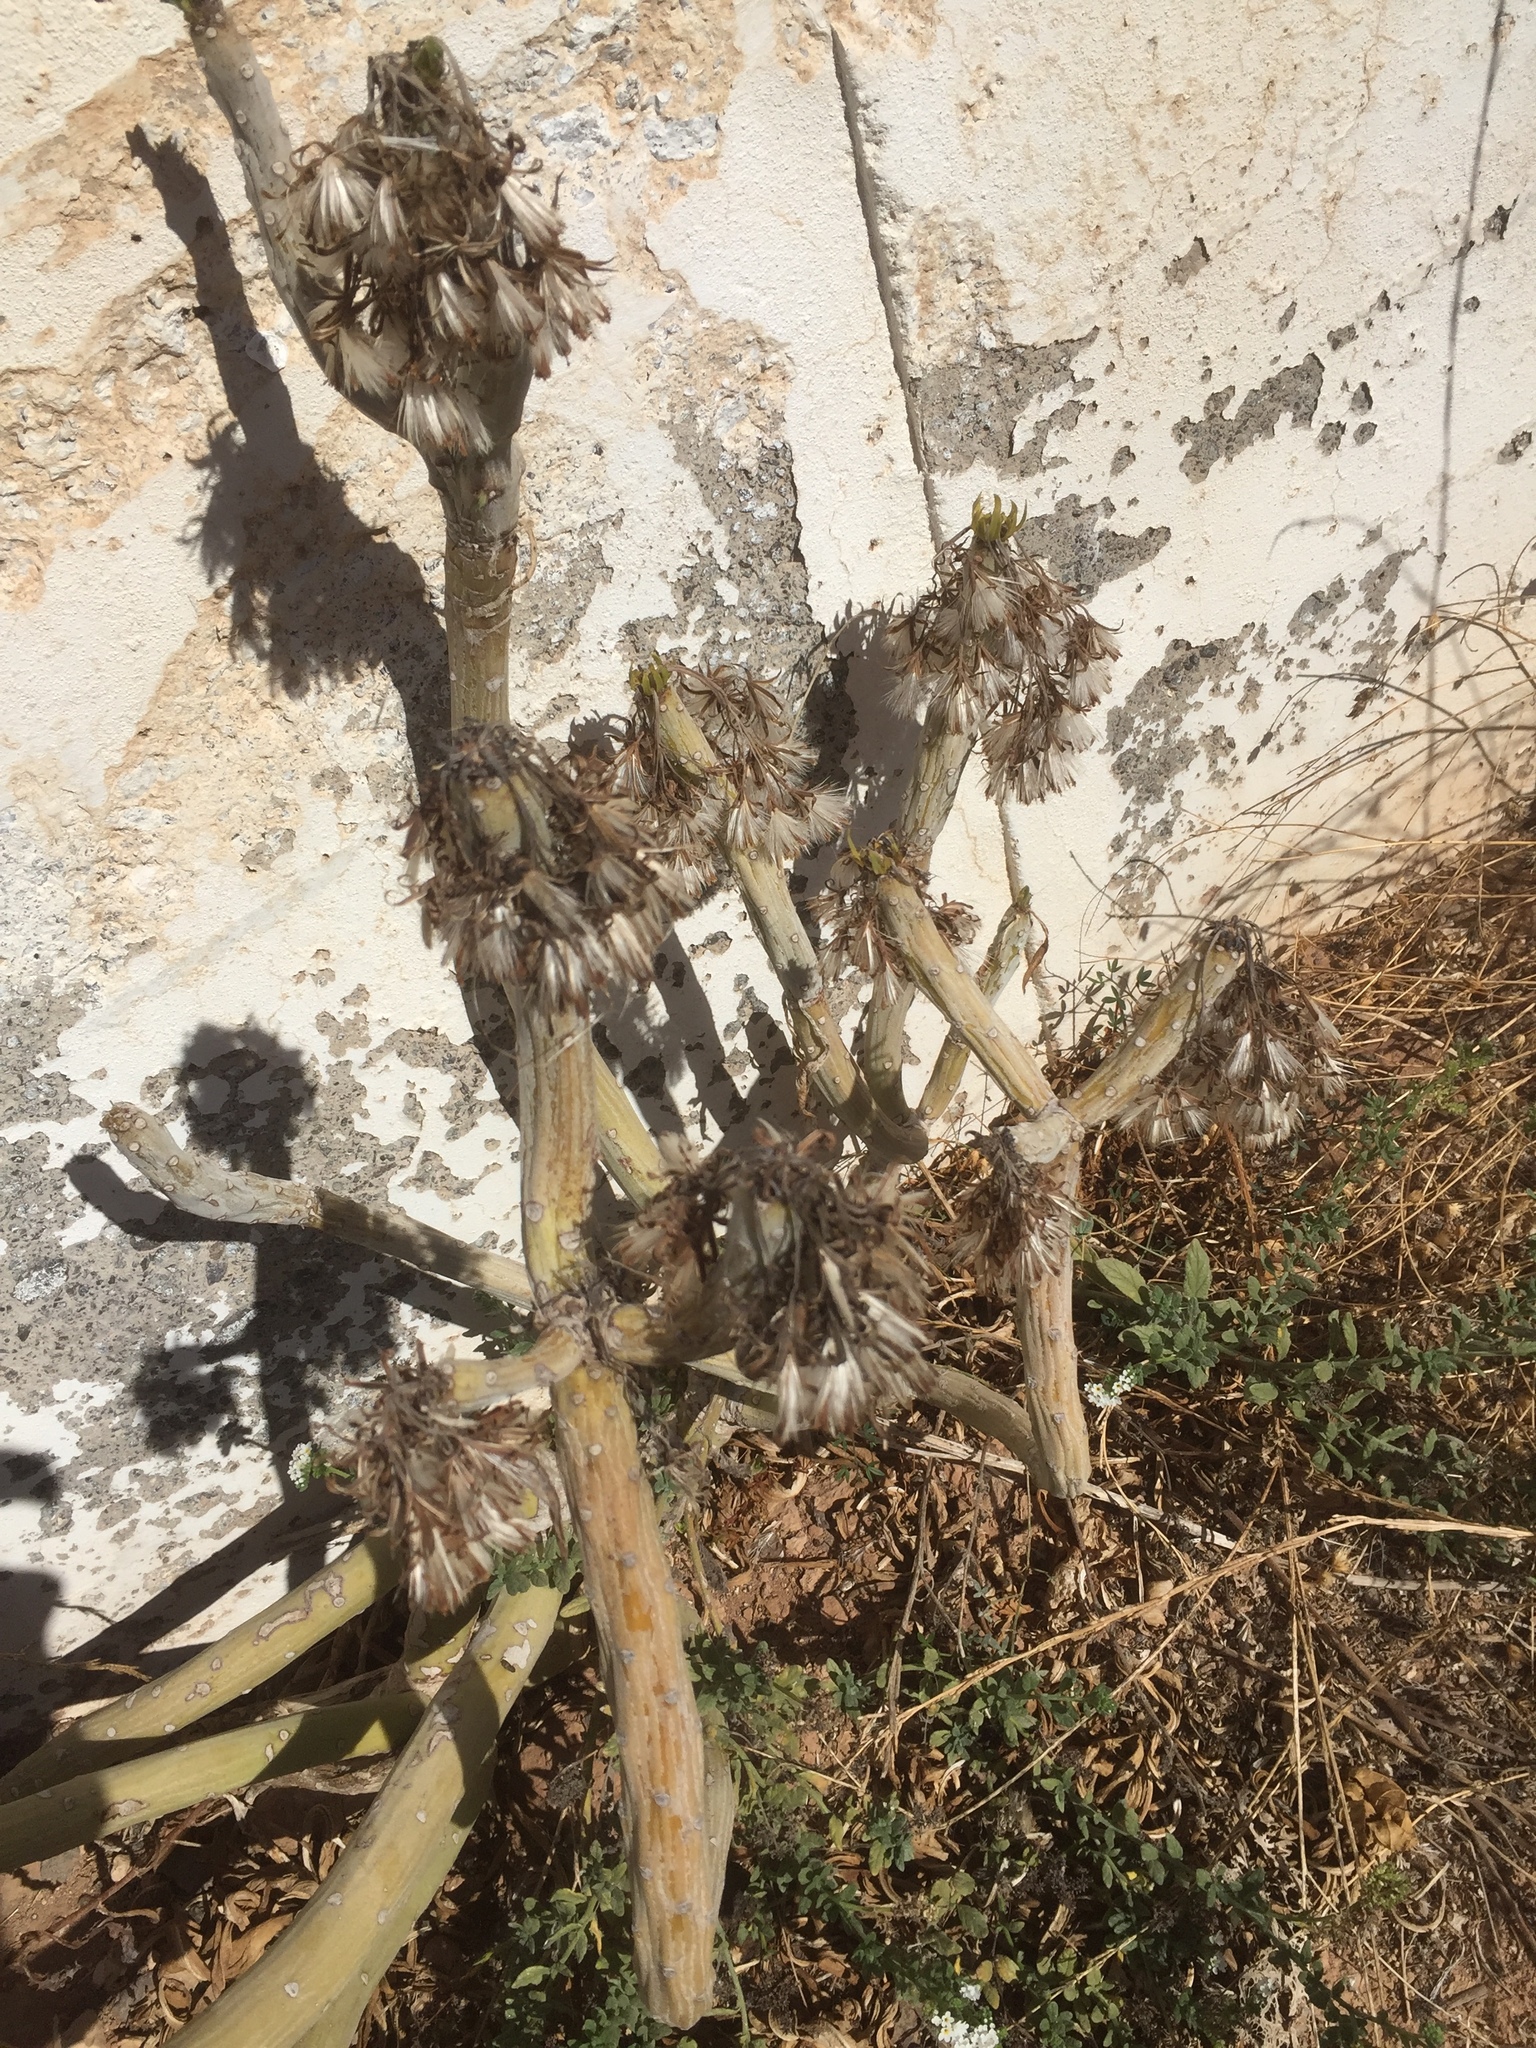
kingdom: Plantae
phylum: Tracheophyta
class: Magnoliopsida
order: Asterales
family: Asteraceae
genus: Kleinia
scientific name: Kleinia neriifolia
